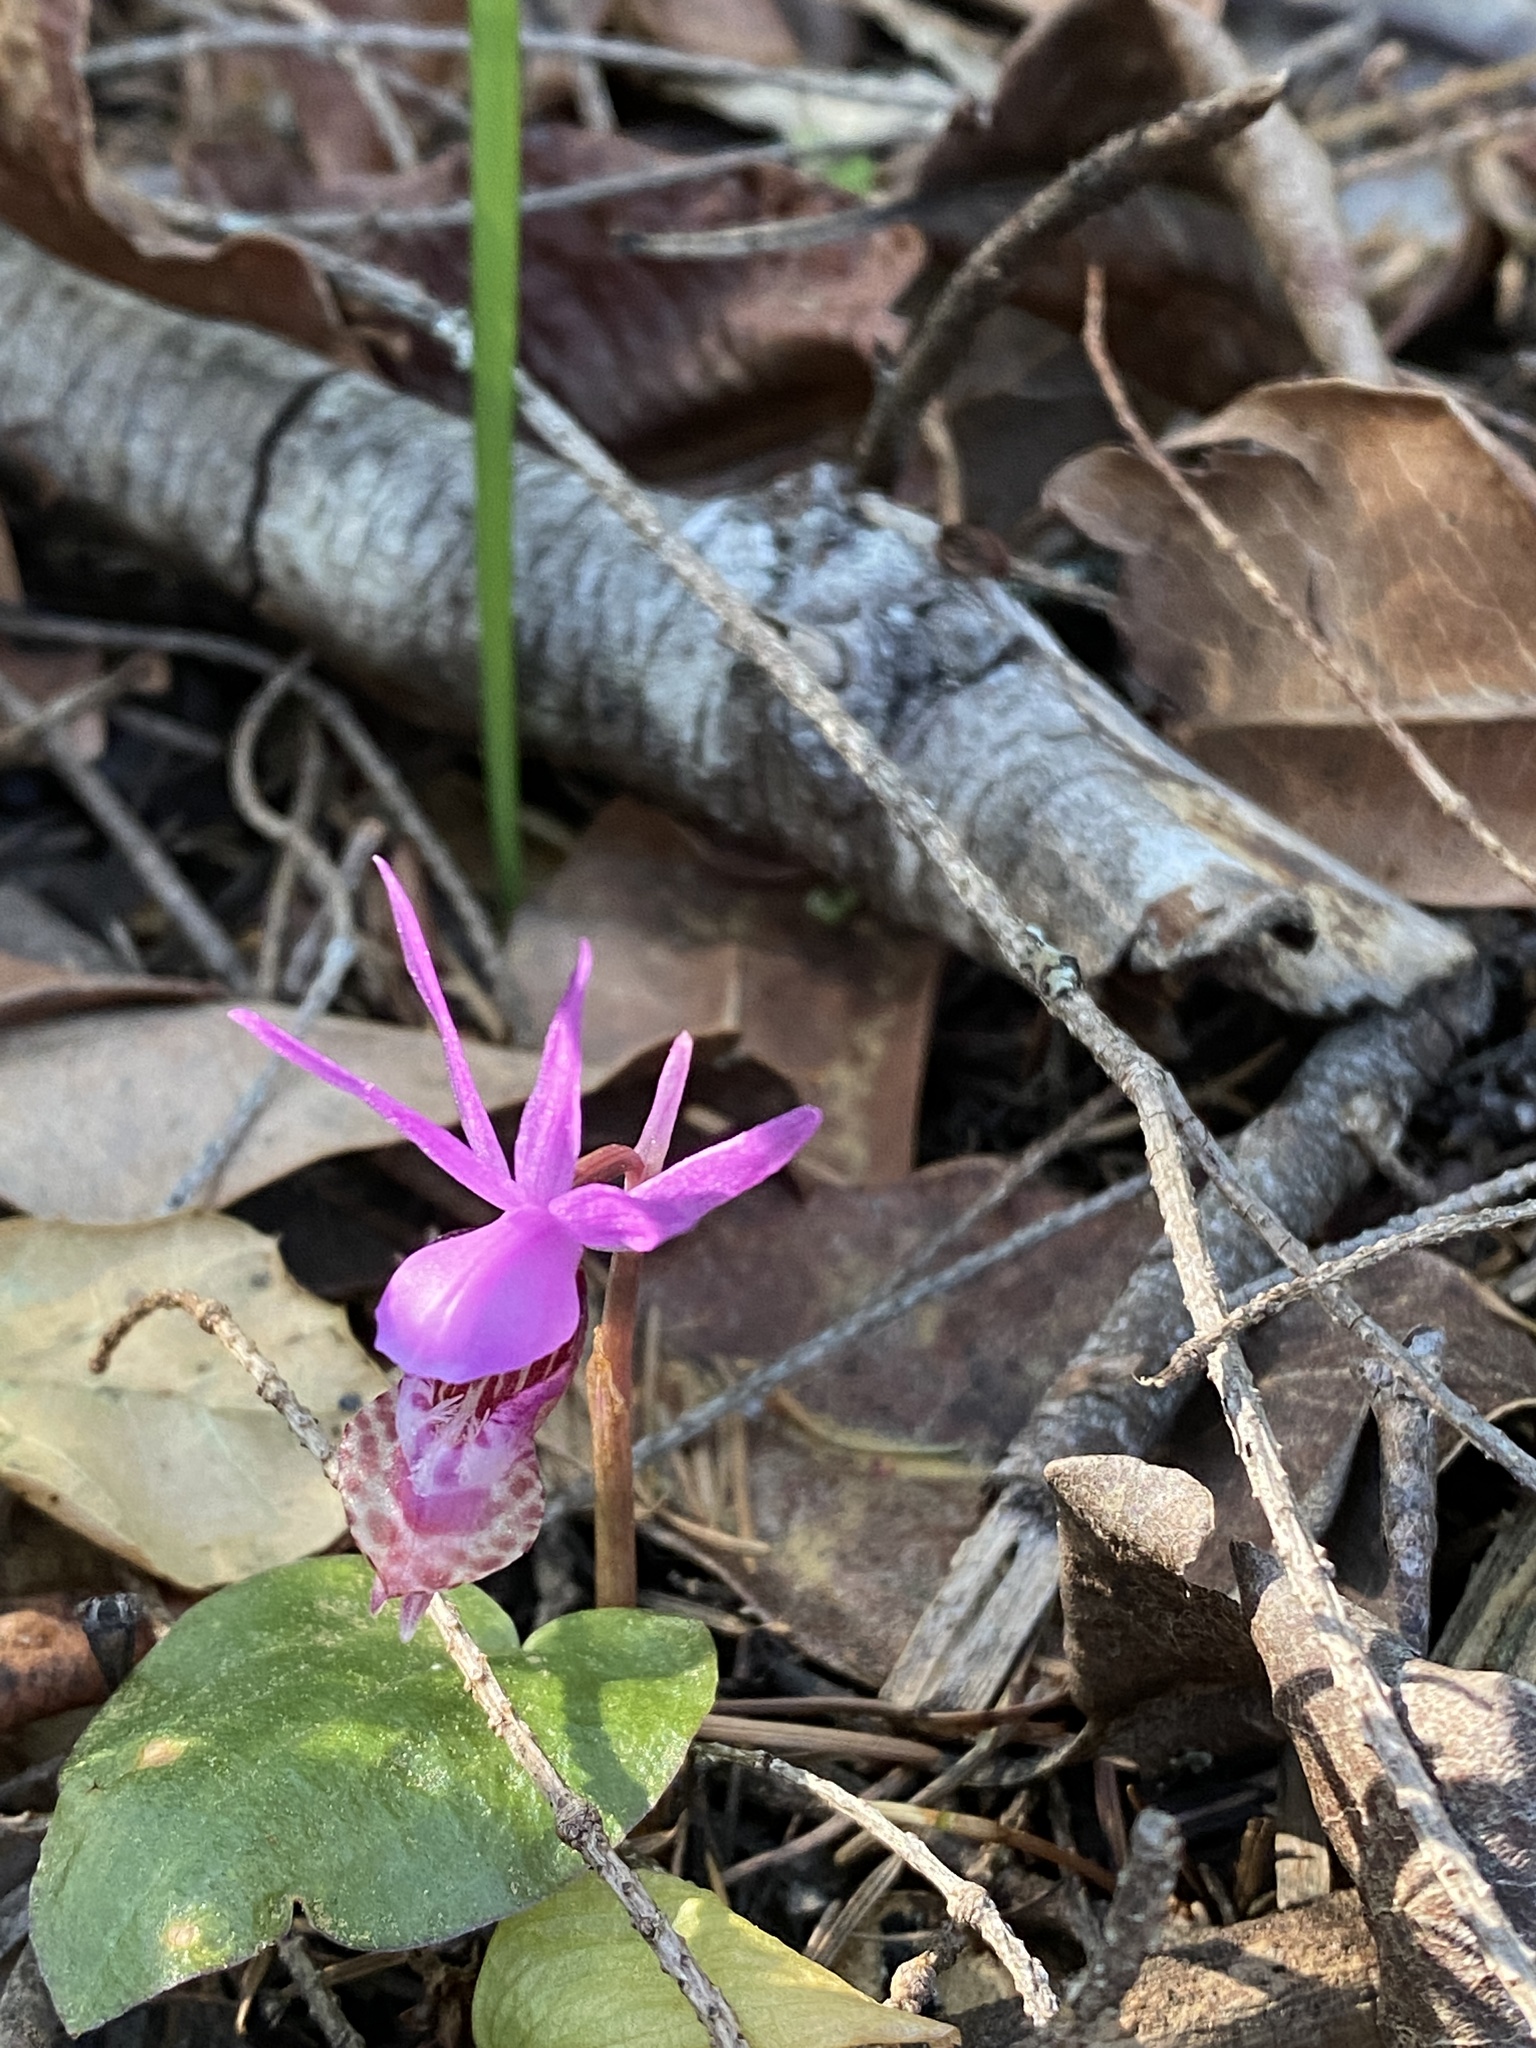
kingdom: Plantae
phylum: Tracheophyta
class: Liliopsida
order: Asparagales
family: Orchidaceae
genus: Calypso
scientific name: Calypso bulbosa
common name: Calypso
